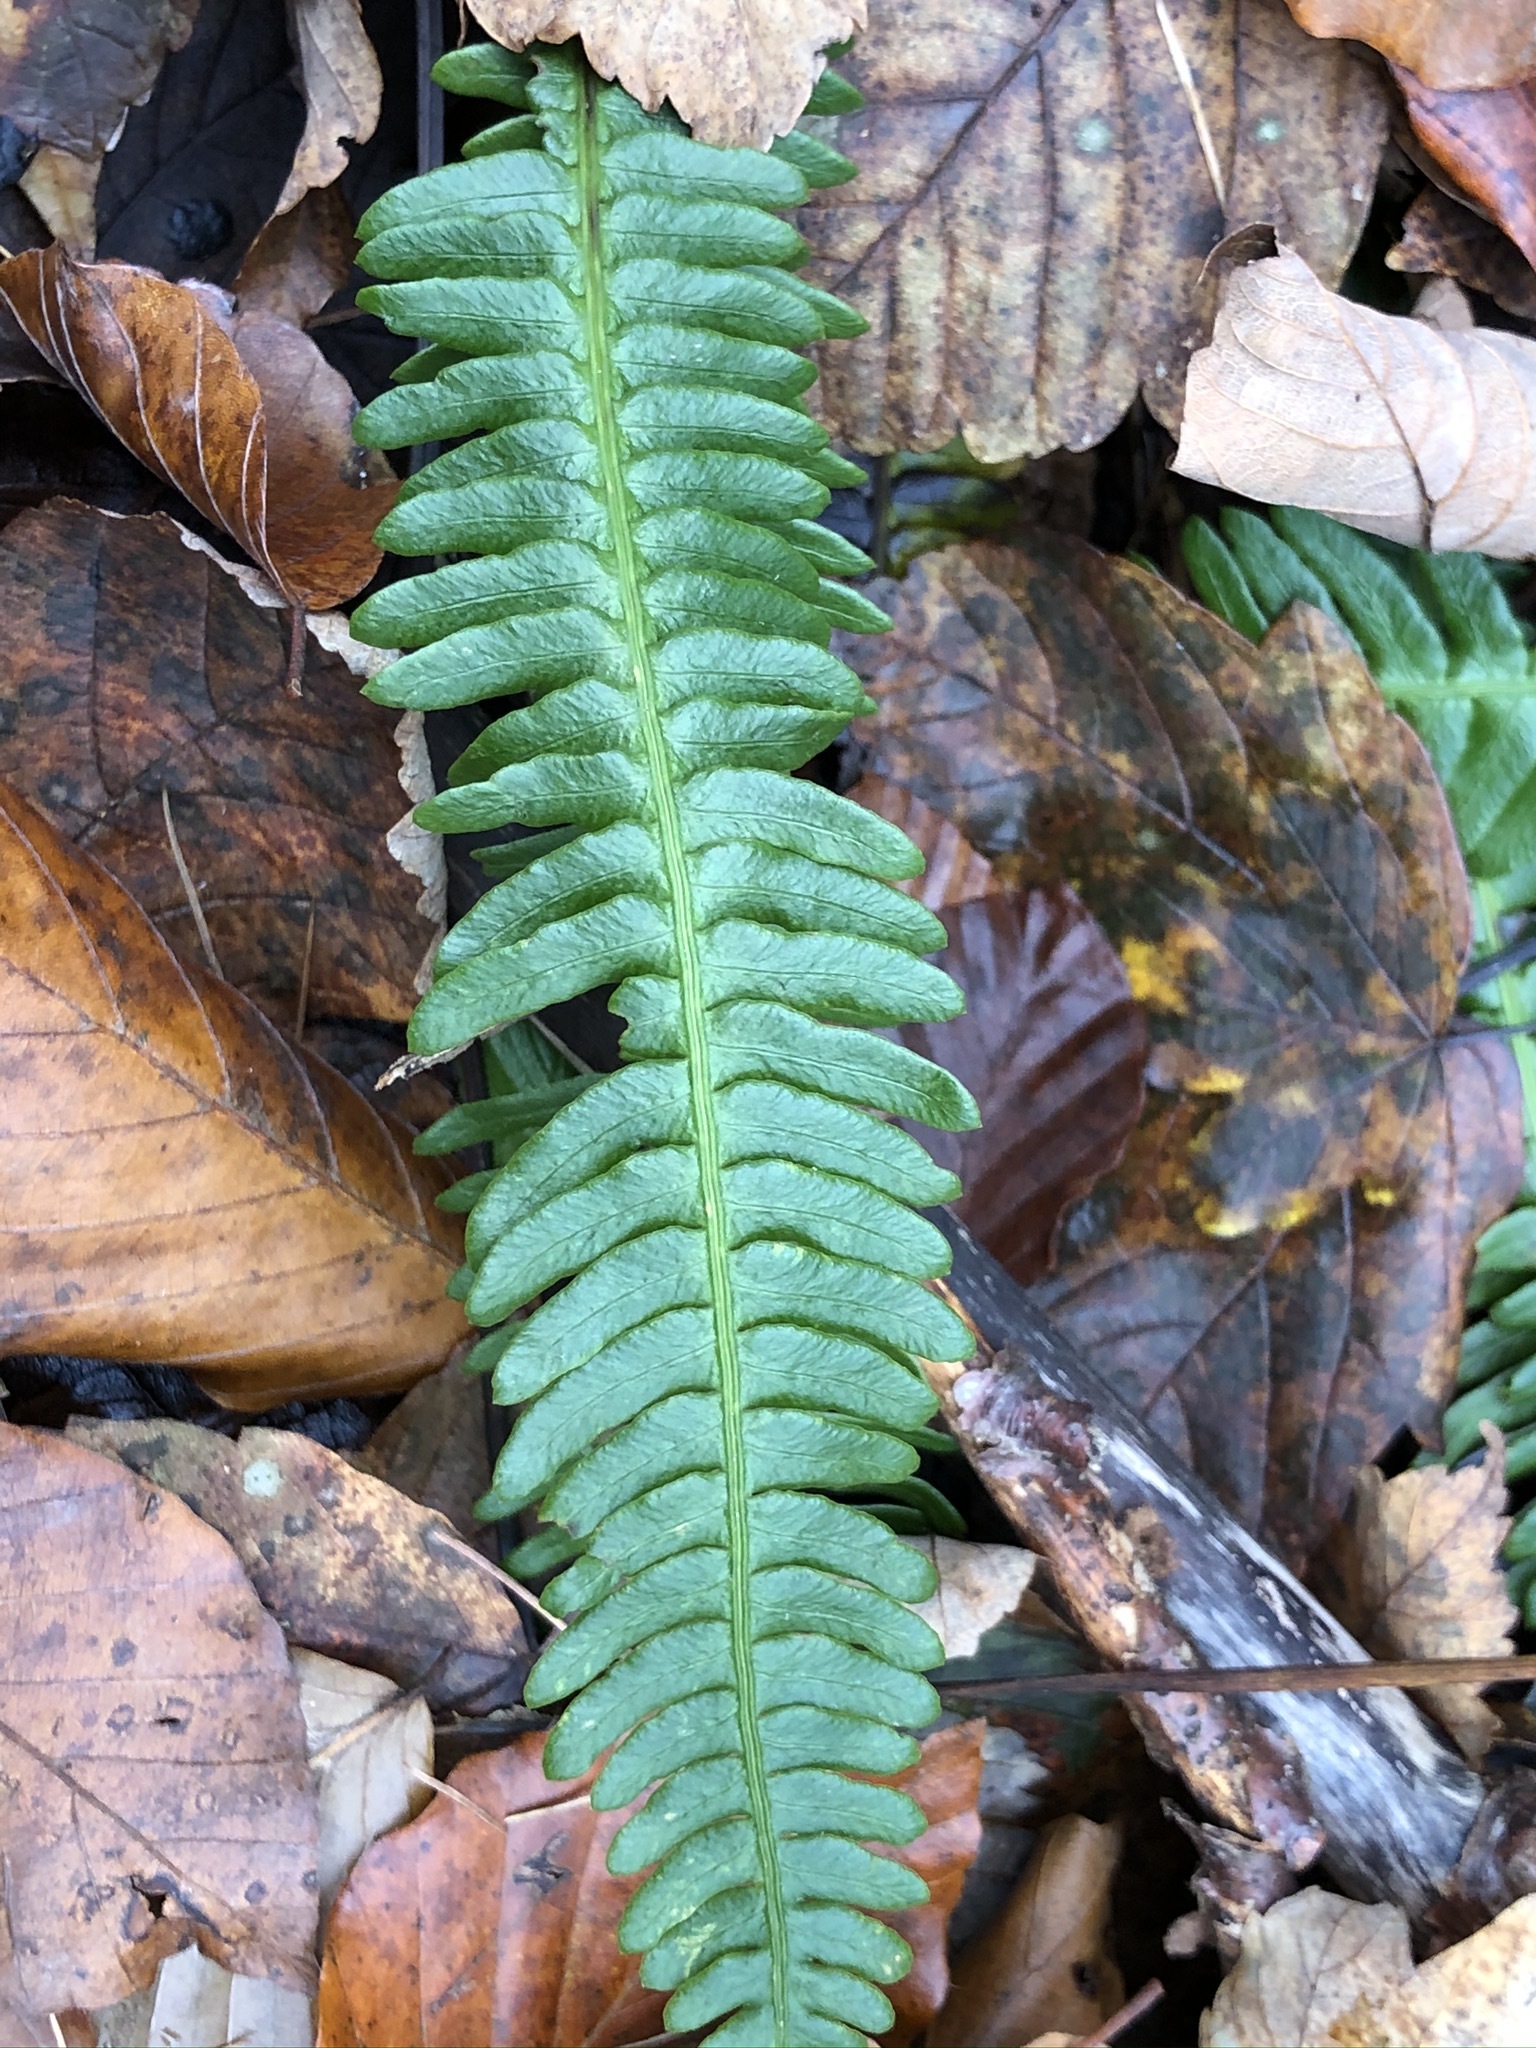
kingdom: Plantae
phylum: Tracheophyta
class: Polypodiopsida
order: Polypodiales
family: Blechnaceae
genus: Struthiopteris
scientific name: Struthiopteris spicant
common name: Deer fern
